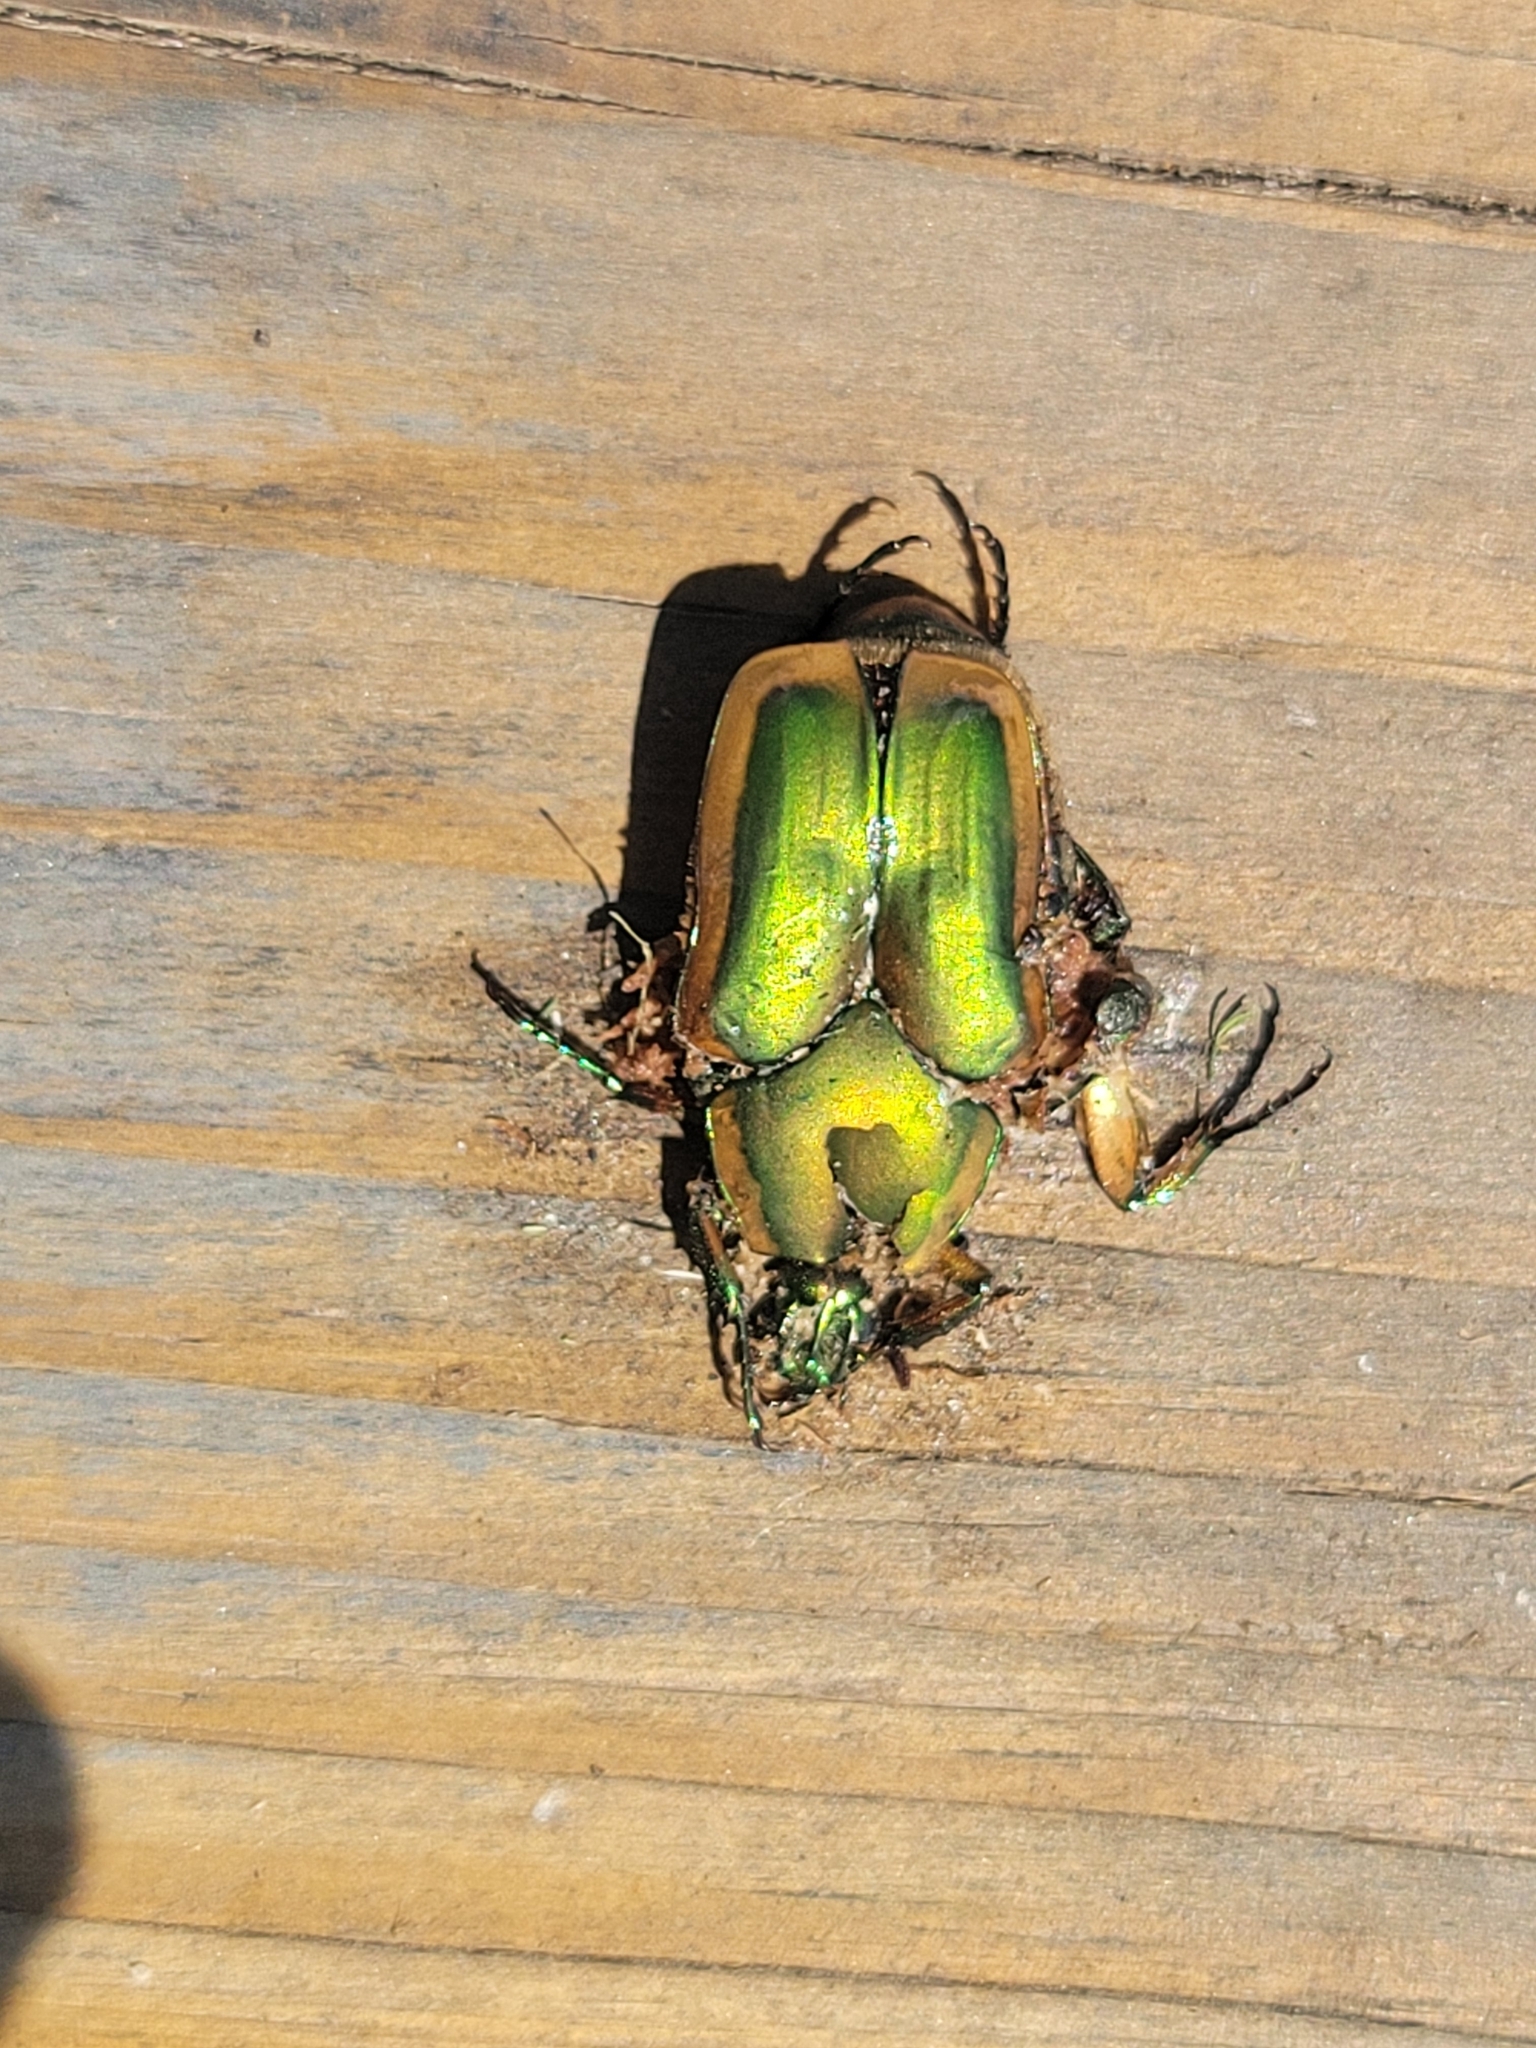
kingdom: Animalia
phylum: Arthropoda
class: Insecta
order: Coleoptera
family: Scarabaeidae
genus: Cotinis
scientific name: Cotinis nitida
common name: Common green june beetle
